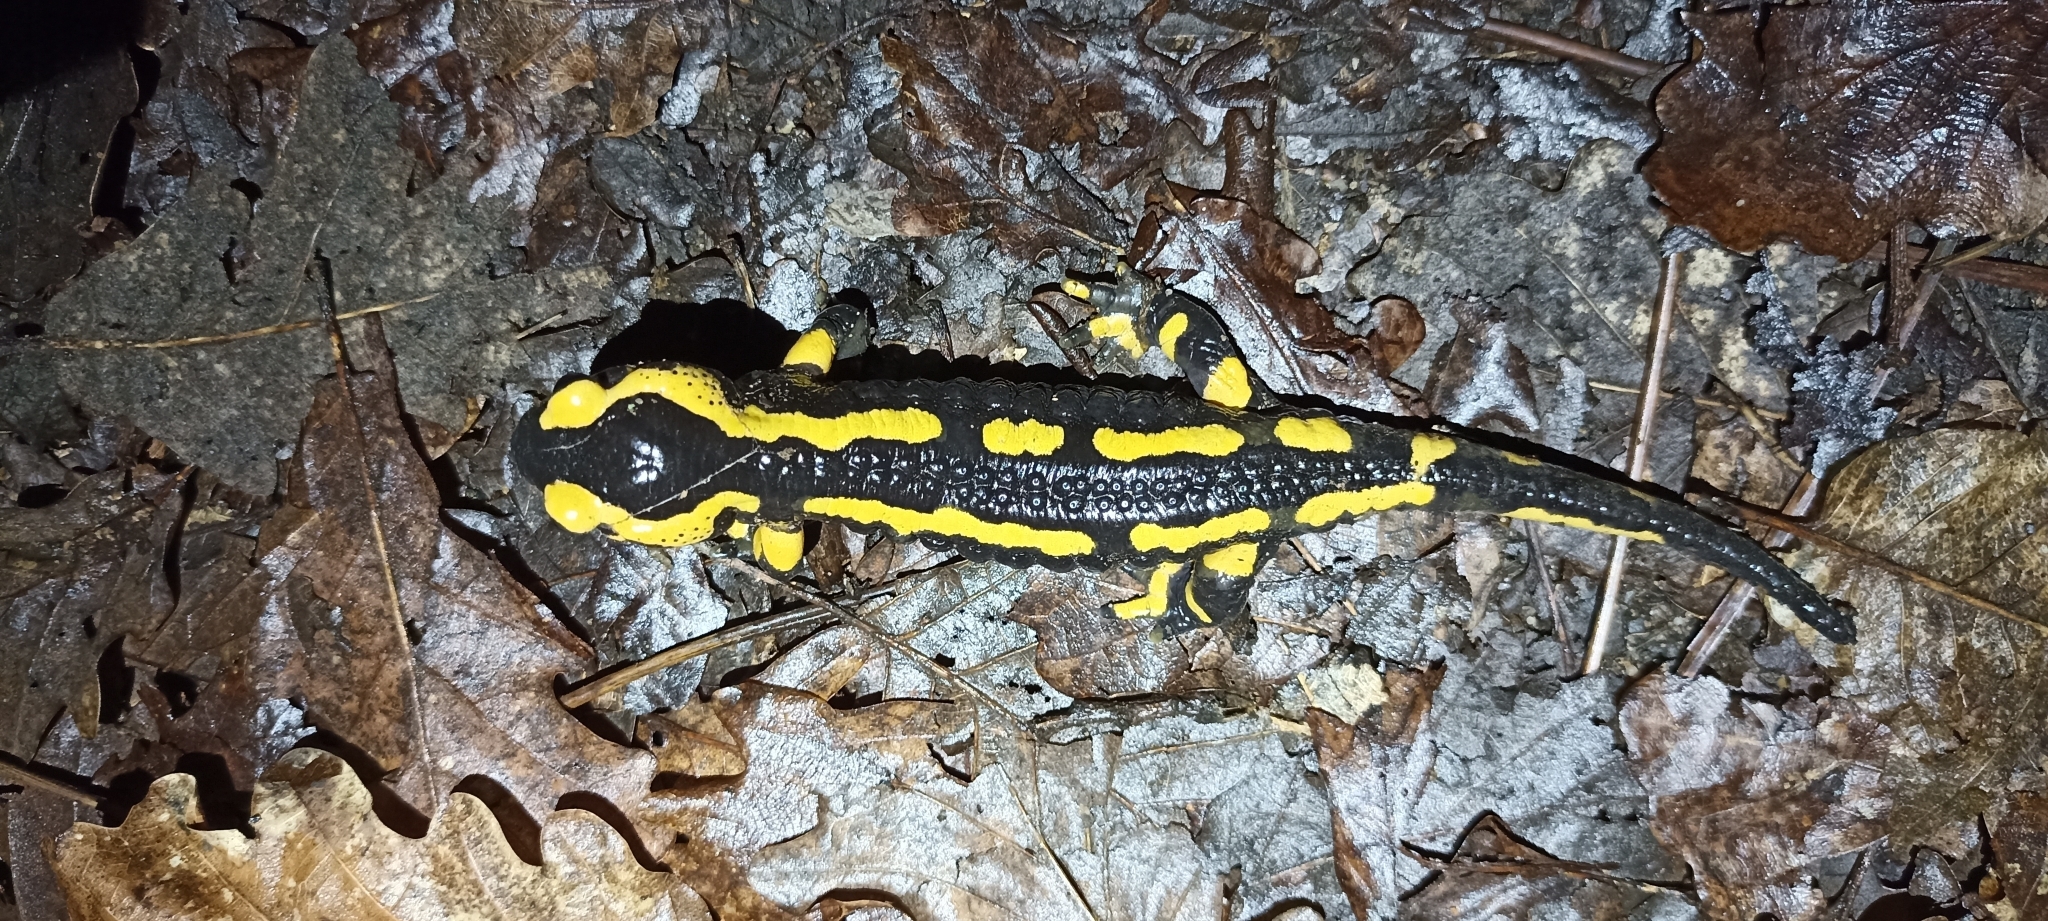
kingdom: Animalia
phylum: Chordata
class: Amphibia
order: Caudata
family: Salamandridae
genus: Salamandra
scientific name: Salamandra salamandra
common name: Fire salamander
